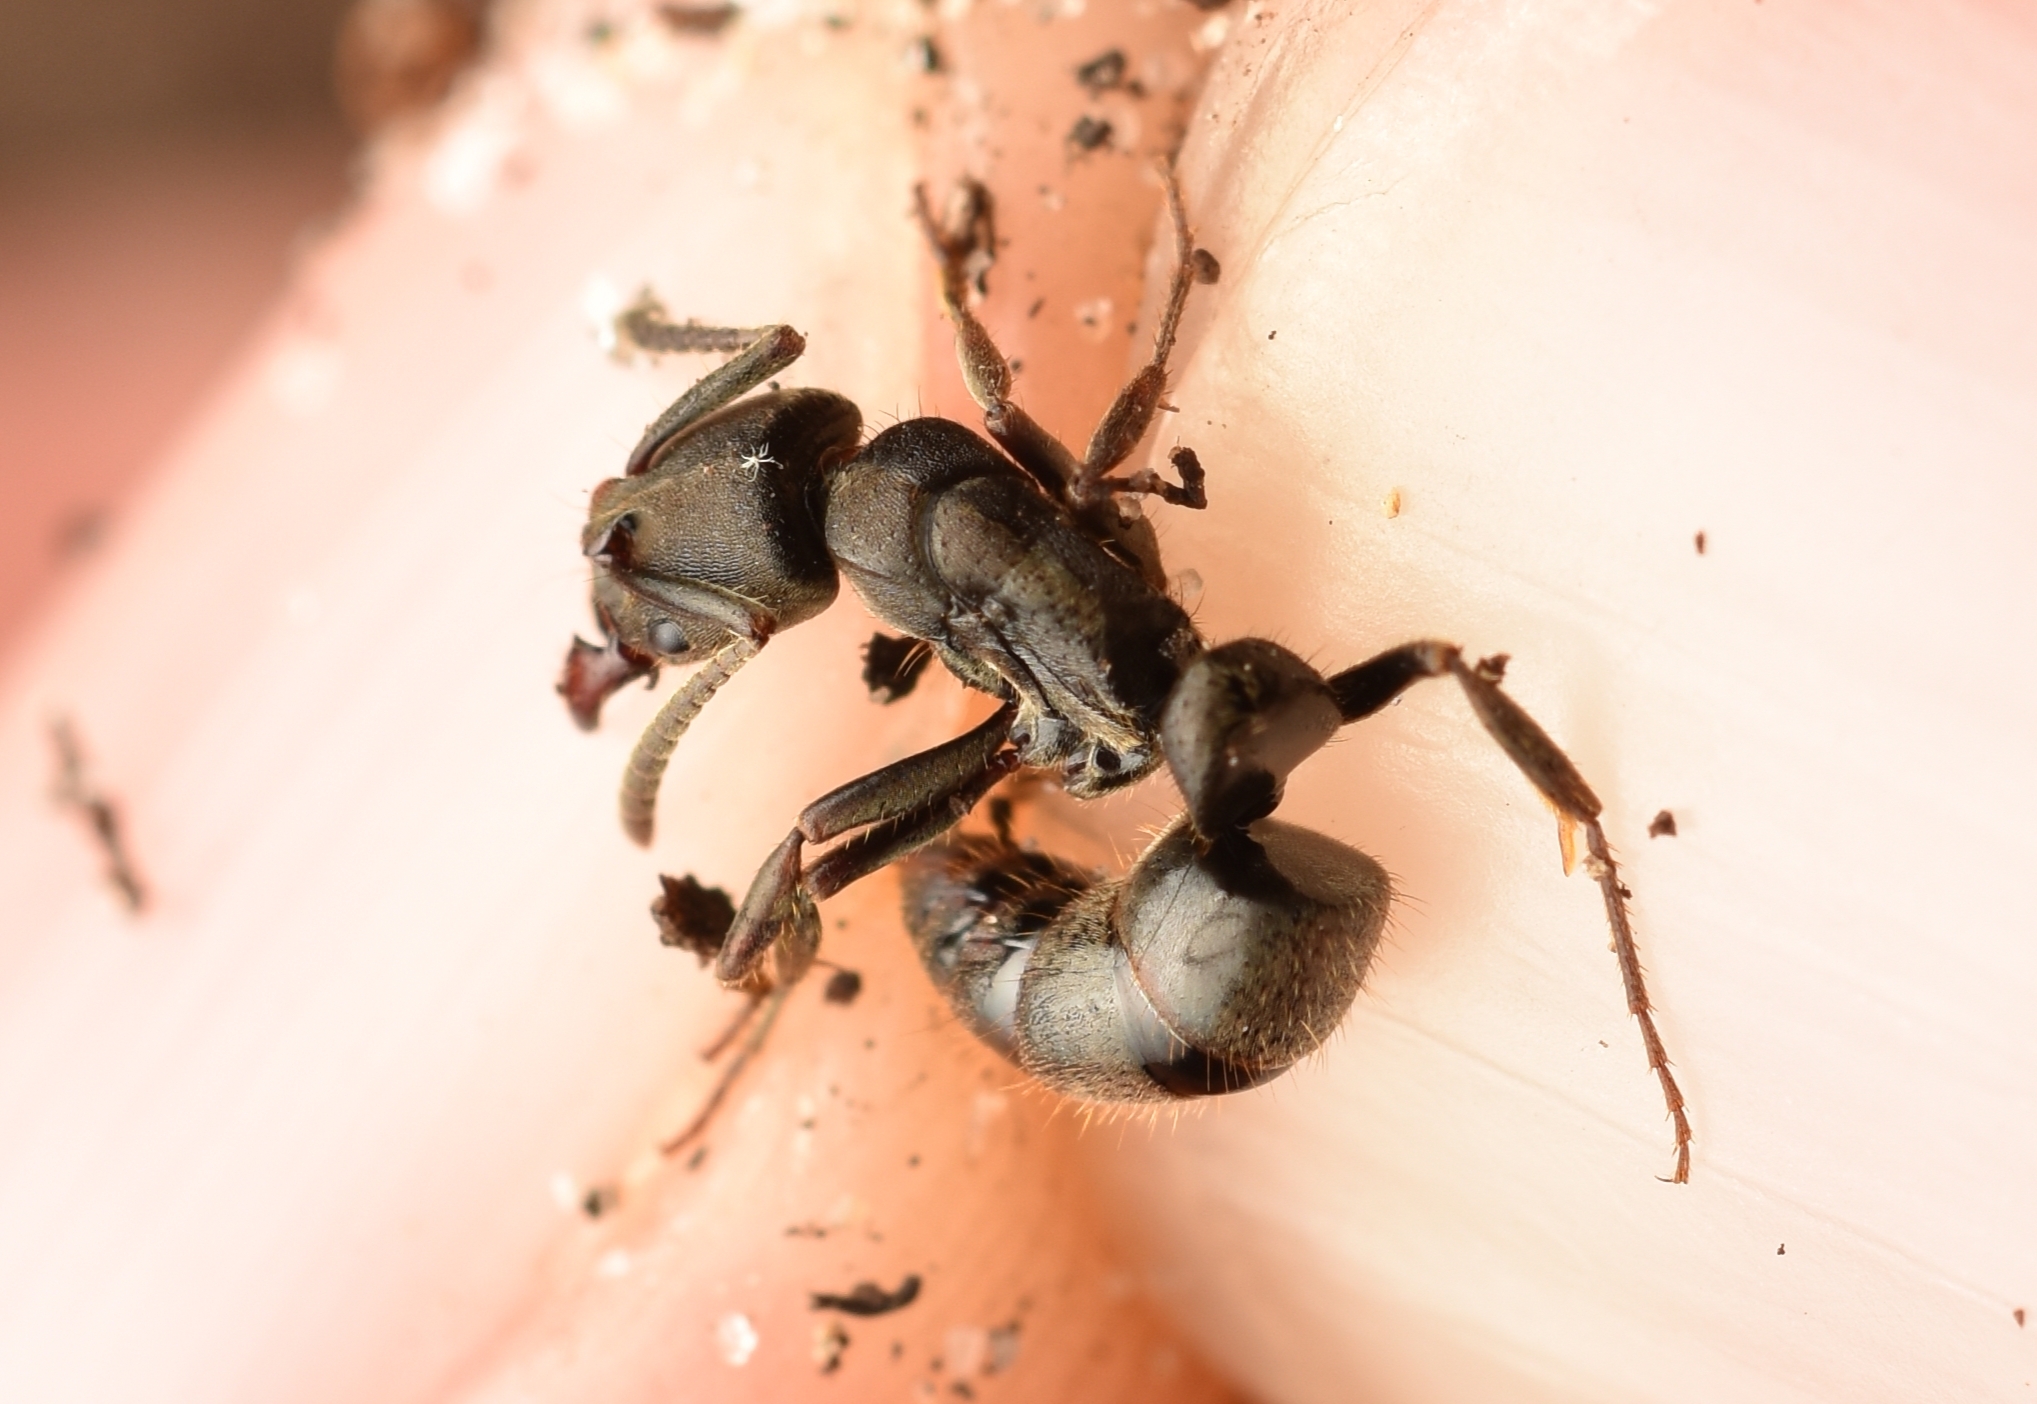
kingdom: Animalia
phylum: Arthropoda
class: Insecta
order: Hymenoptera
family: Formicidae
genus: Pachycondyla
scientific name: Pachycondyla harpax
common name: Ant
